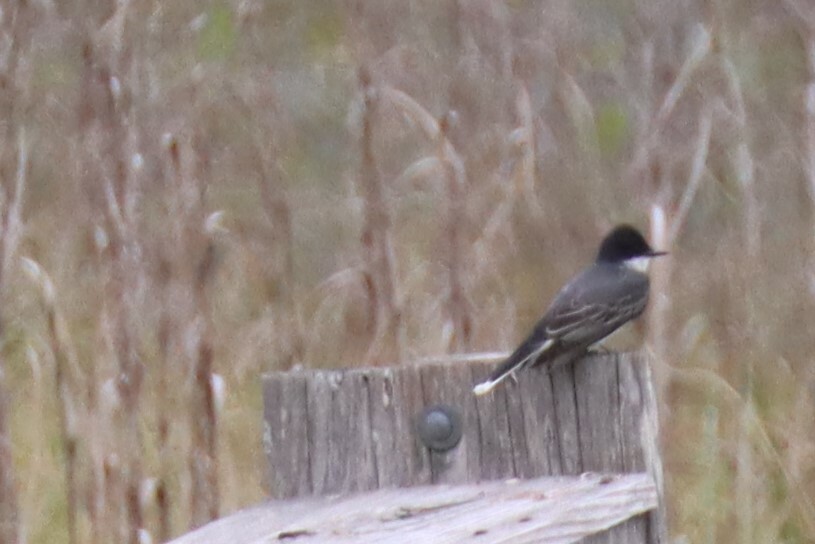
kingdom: Animalia
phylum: Chordata
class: Aves
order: Passeriformes
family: Tyrannidae
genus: Tyrannus
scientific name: Tyrannus tyrannus
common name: Eastern kingbird
